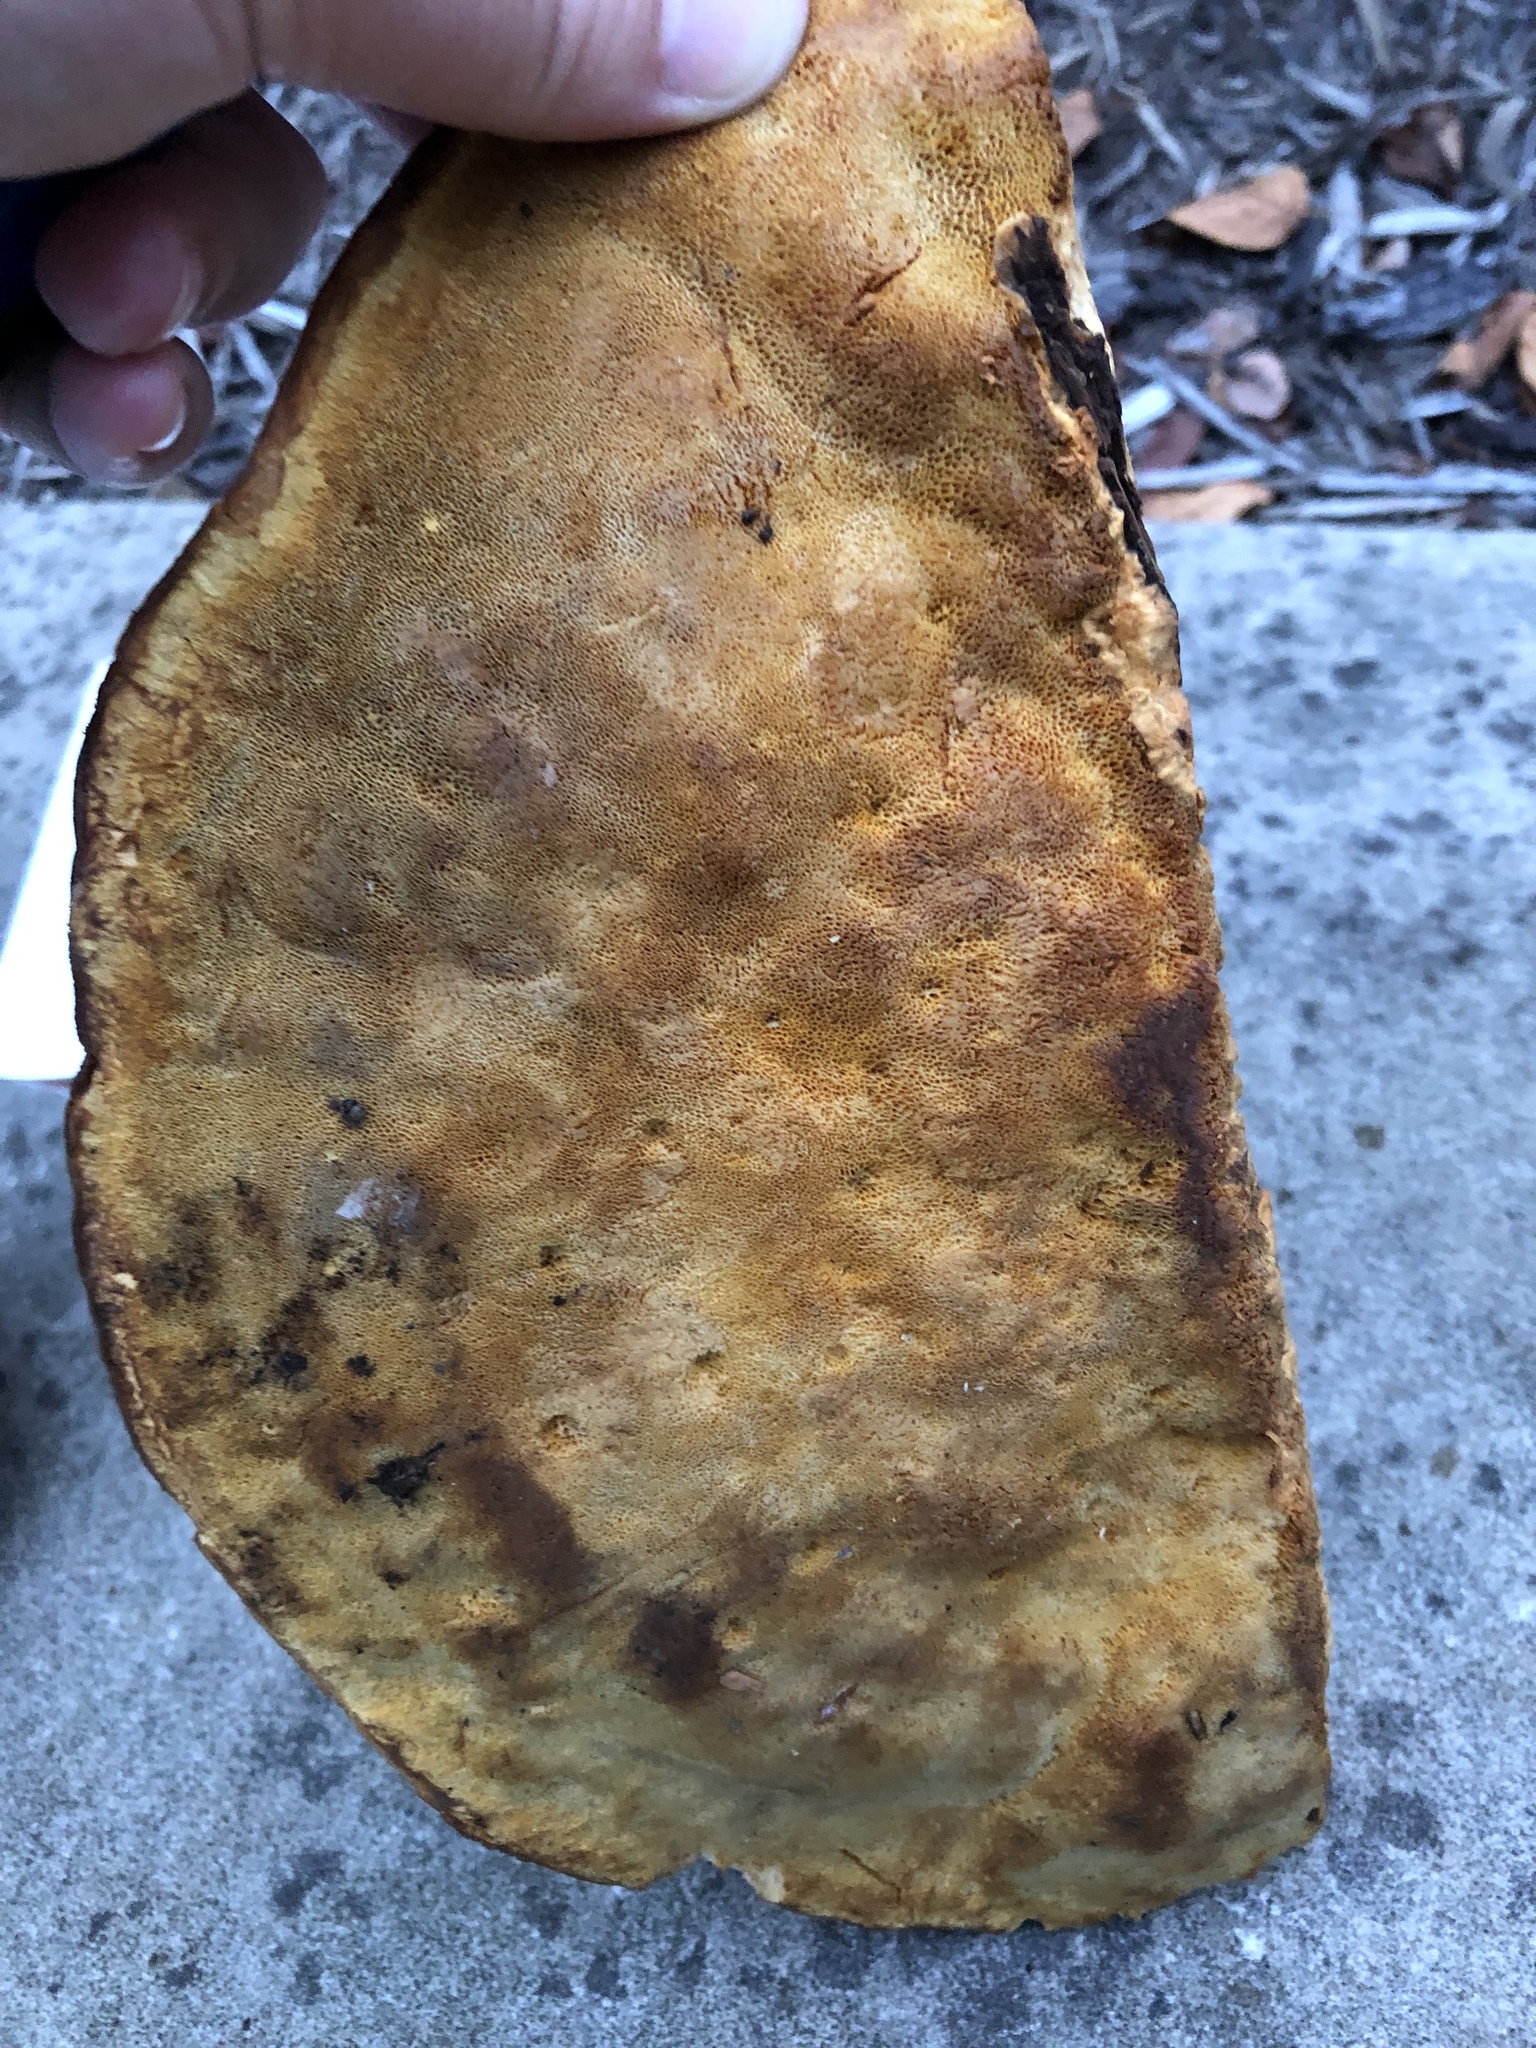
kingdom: Fungi
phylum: Basidiomycota
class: Agaricomycetes
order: Polyporales
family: Phanerochaetaceae
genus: Hapalopilus
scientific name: Hapalopilus croceus
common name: Orange polypore
